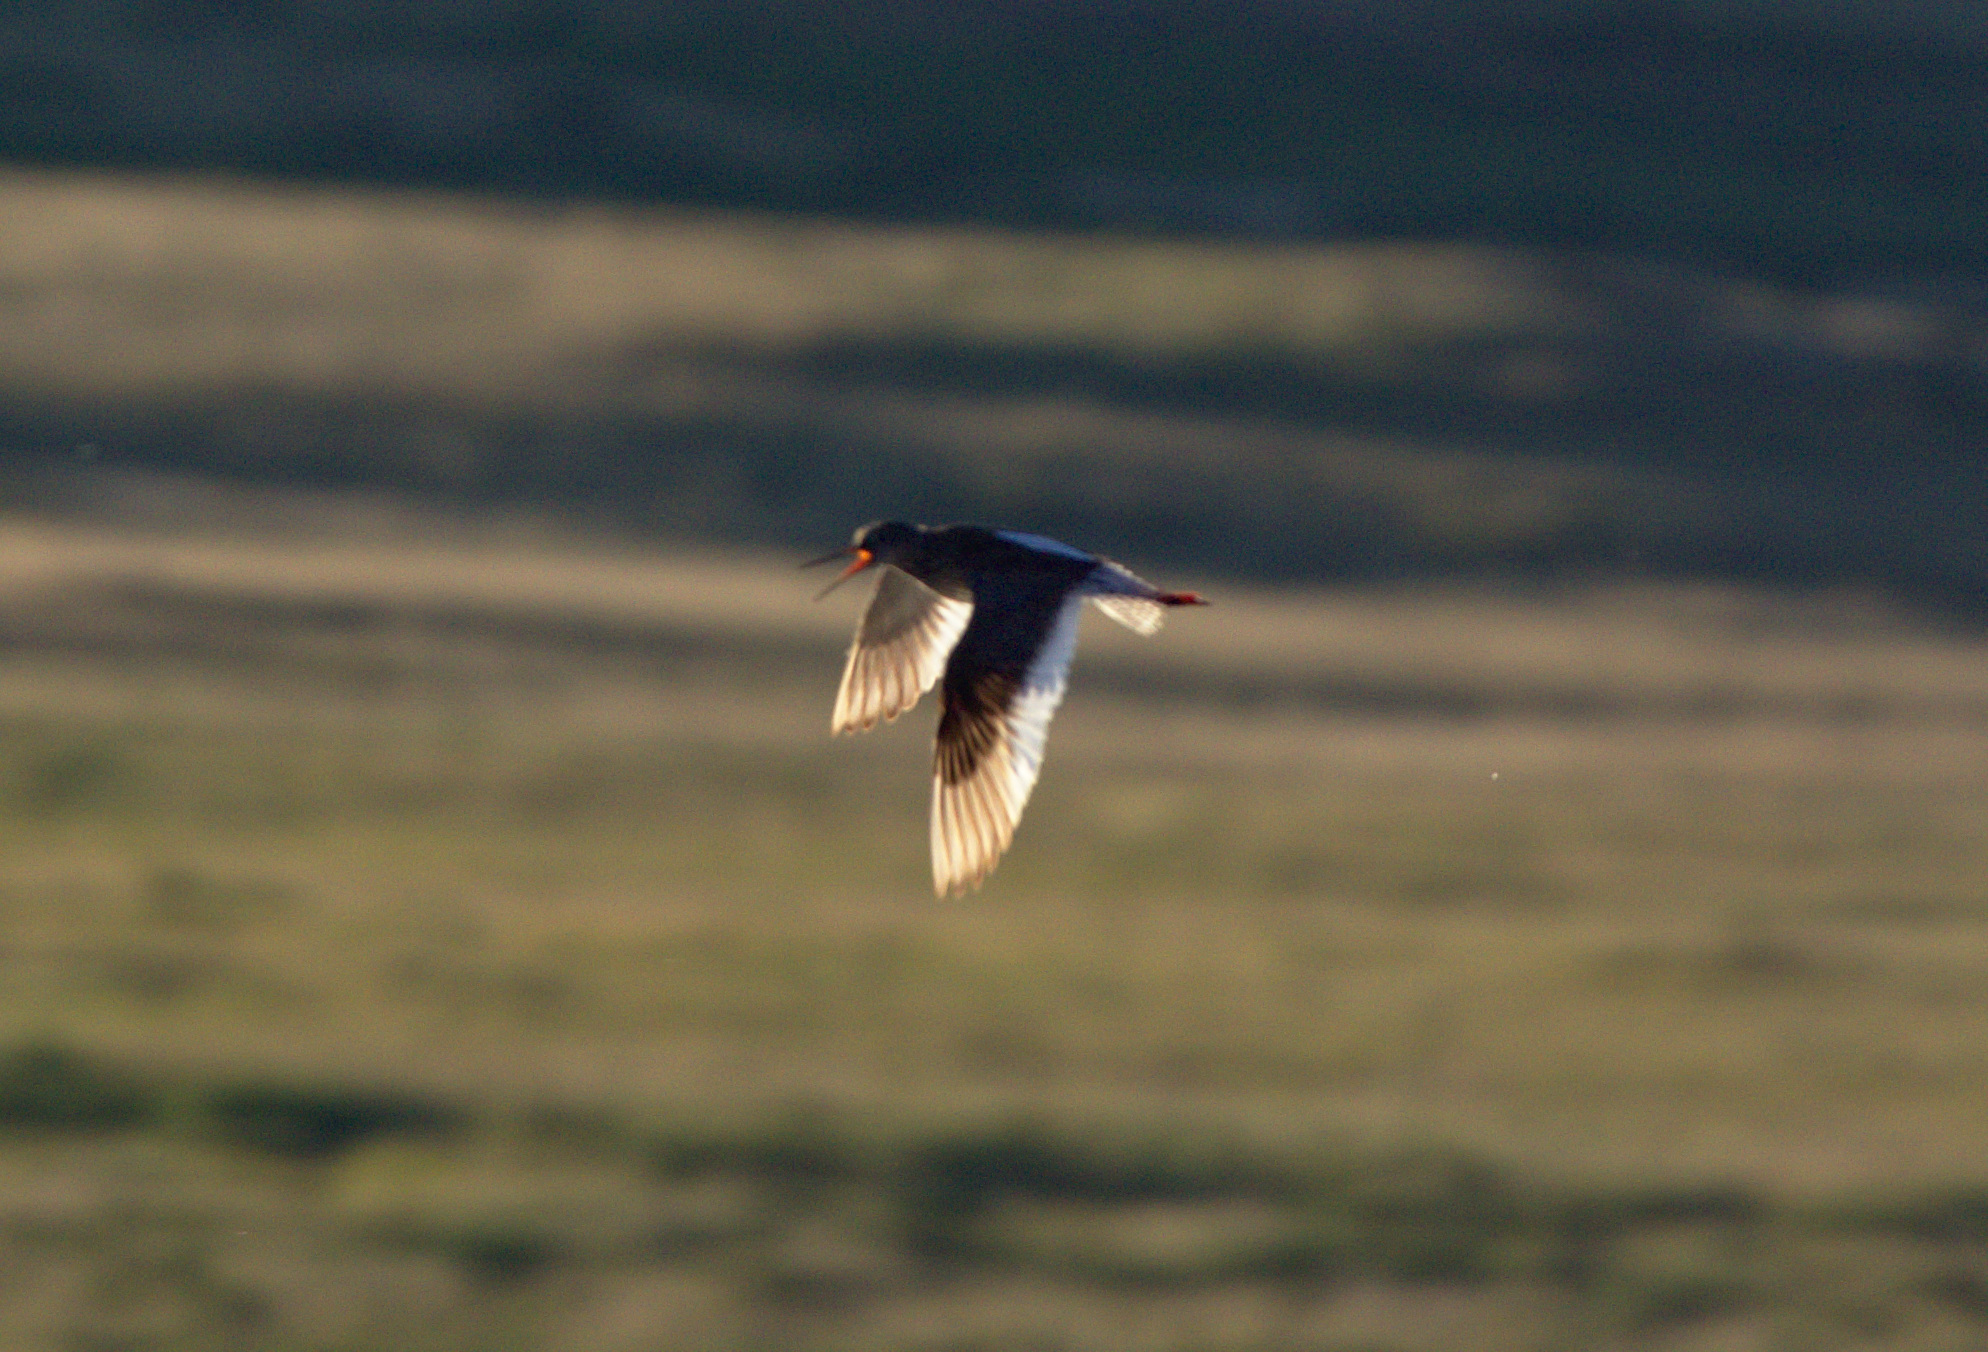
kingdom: Animalia
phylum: Chordata
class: Aves
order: Charadriiformes
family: Scolopacidae
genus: Tringa
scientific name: Tringa totanus
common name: Common redshank
